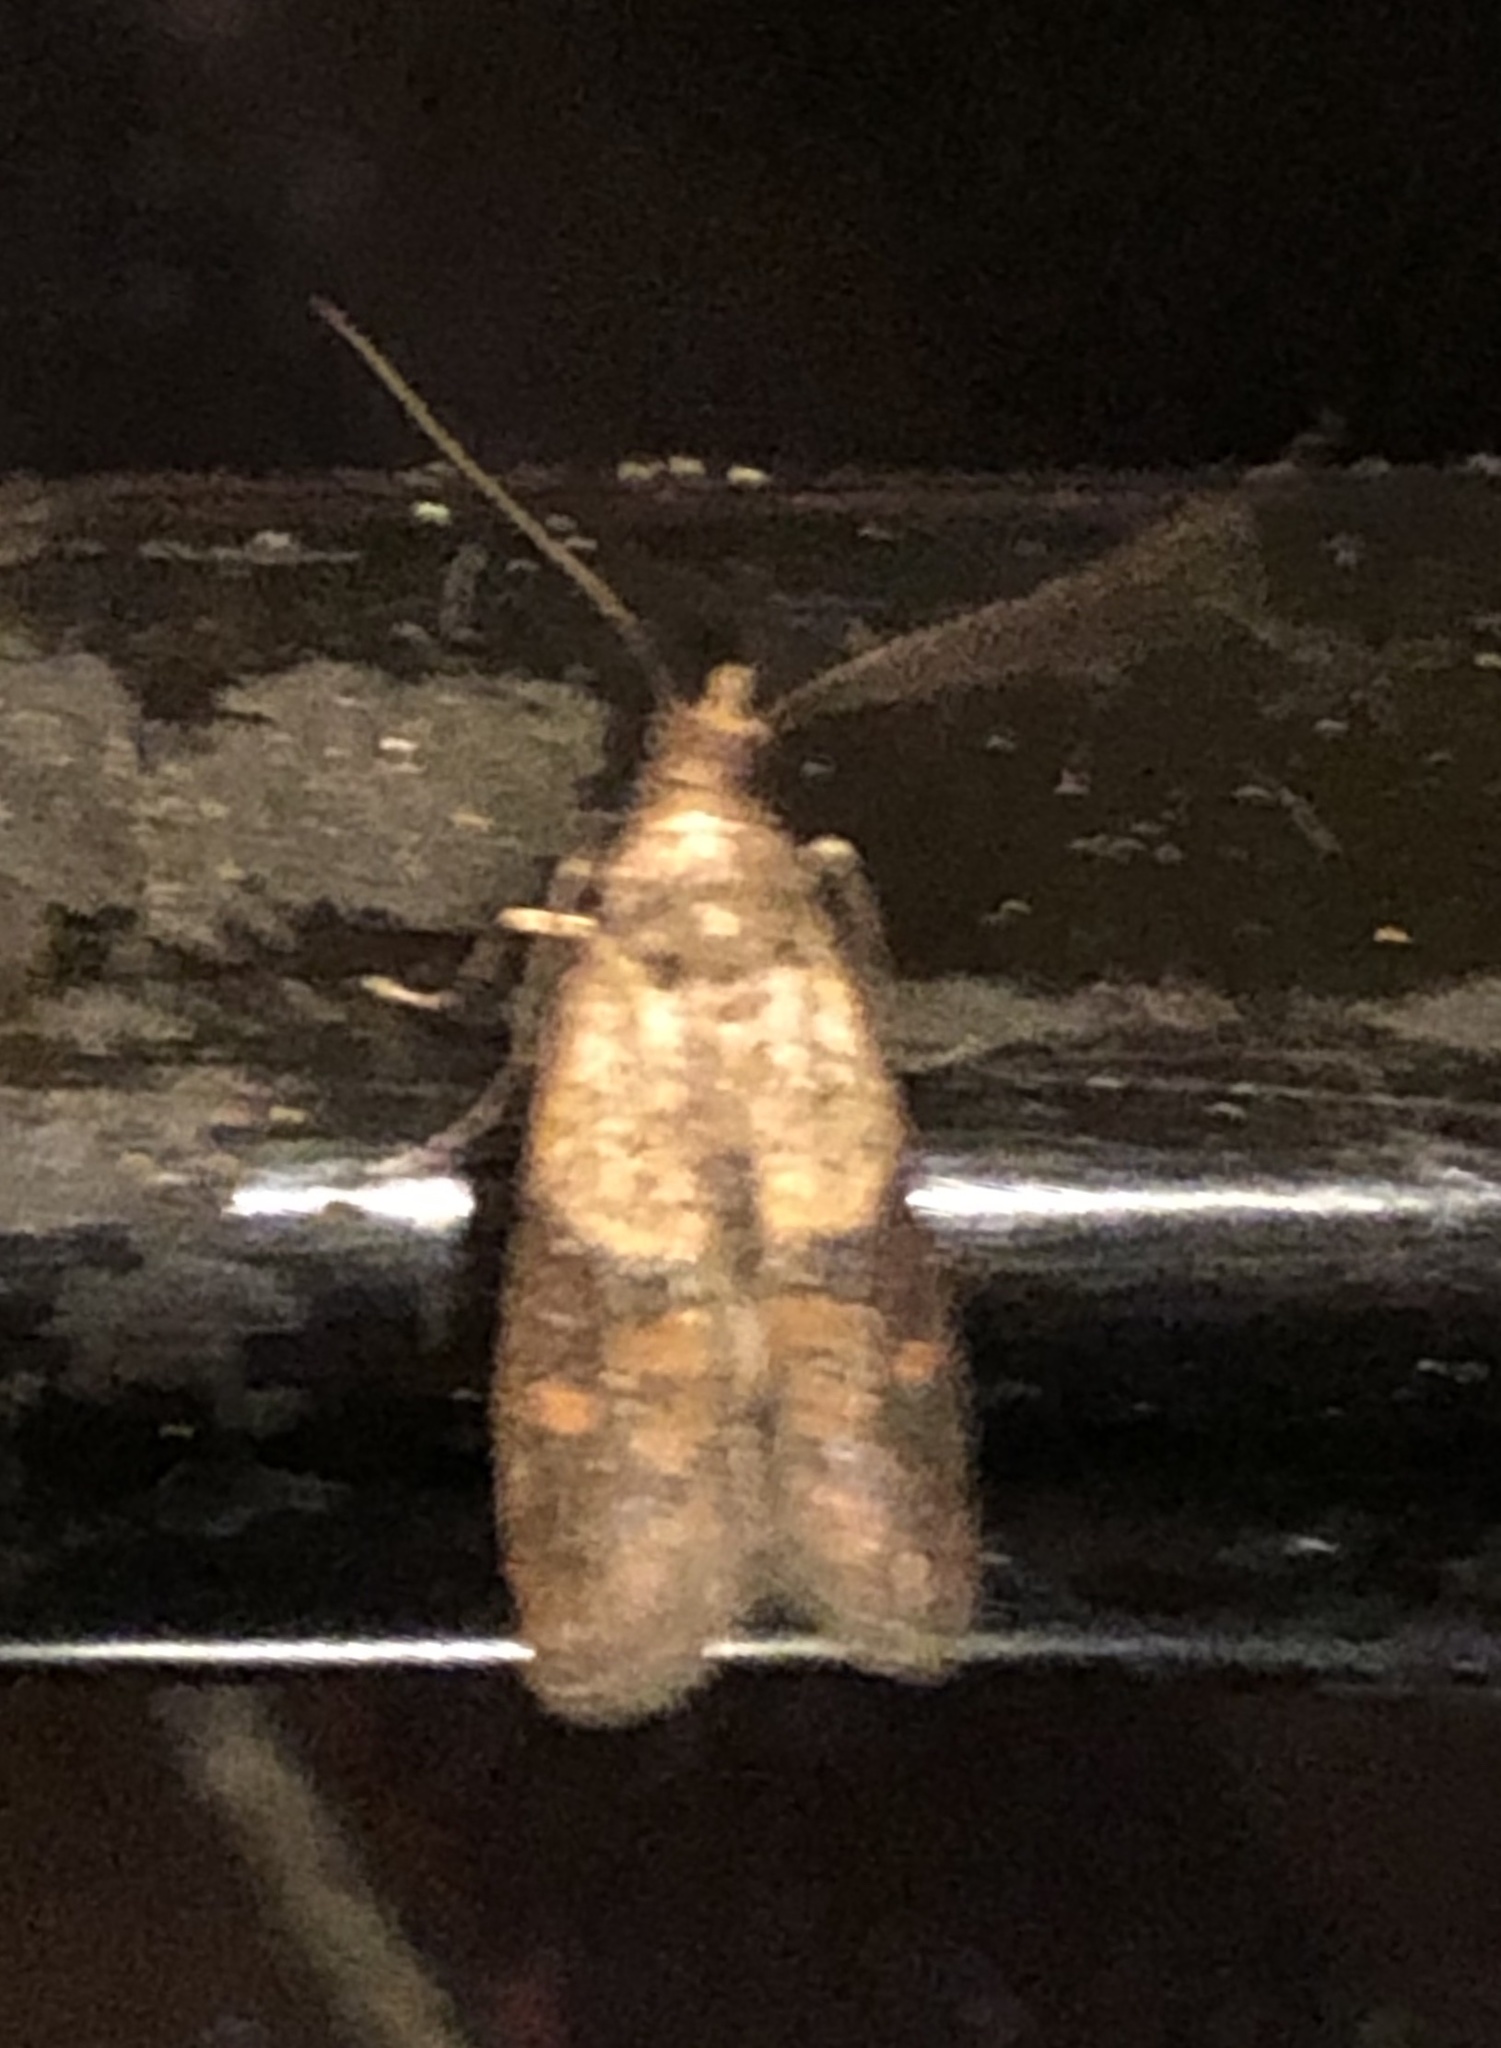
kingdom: Animalia
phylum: Arthropoda
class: Insecta
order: Lepidoptera
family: Pyralidae
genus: Plodia
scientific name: Plodia interpunctella
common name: Indian meal moth
